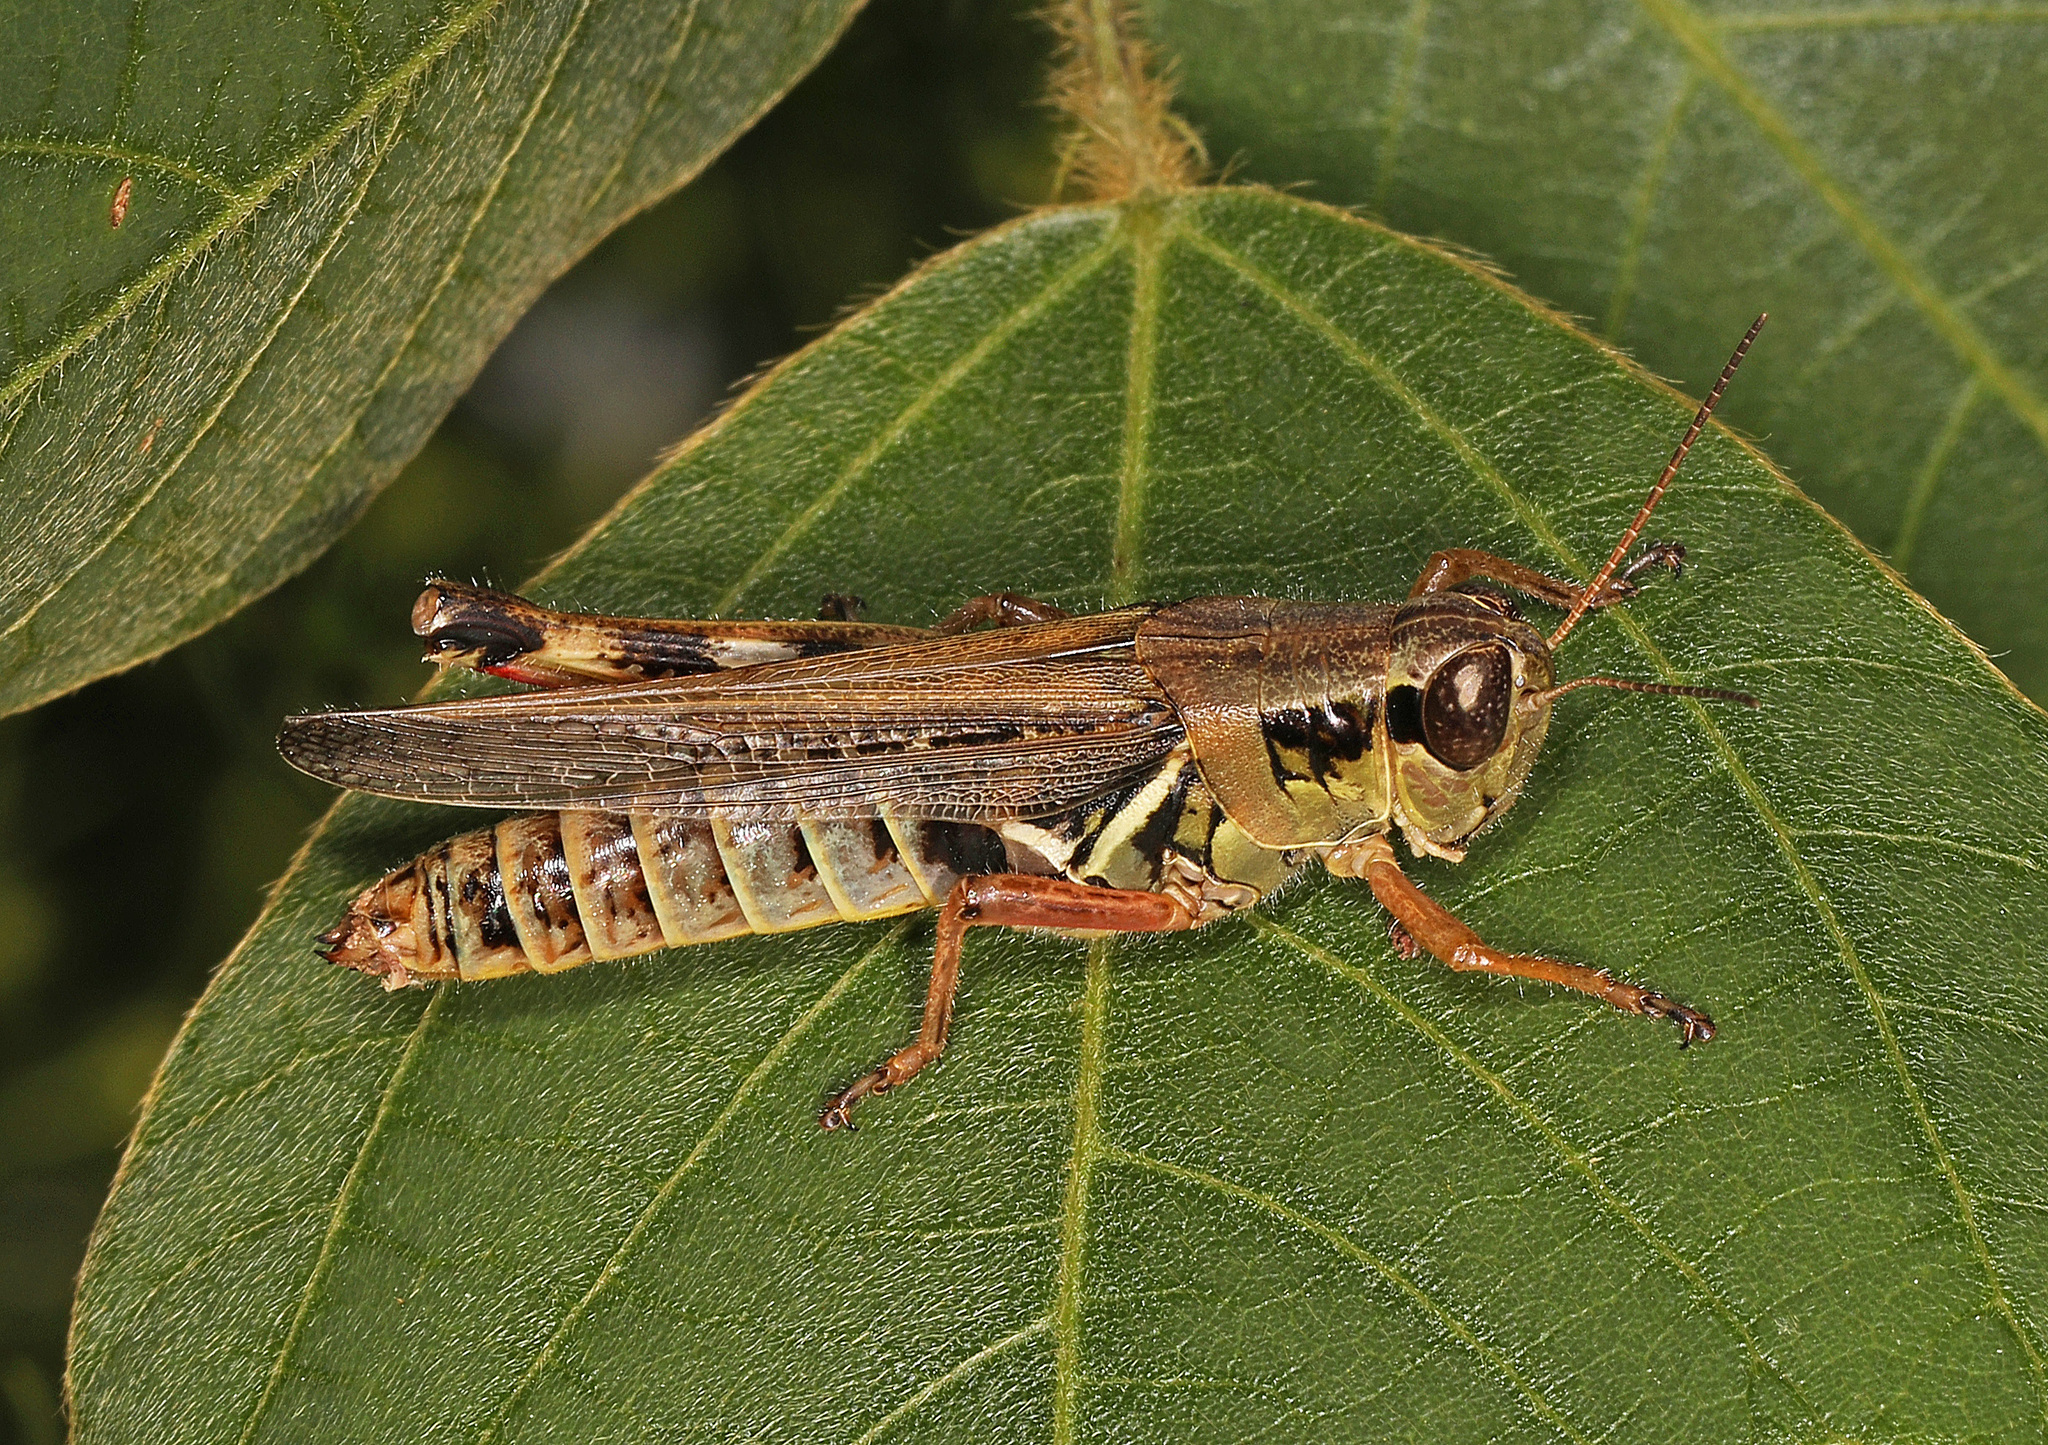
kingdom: Animalia
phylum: Arthropoda
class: Insecta
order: Orthoptera
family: Acrididae
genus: Melanoplus
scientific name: Melanoplus femurrubrum
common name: Red-legged grasshopper
